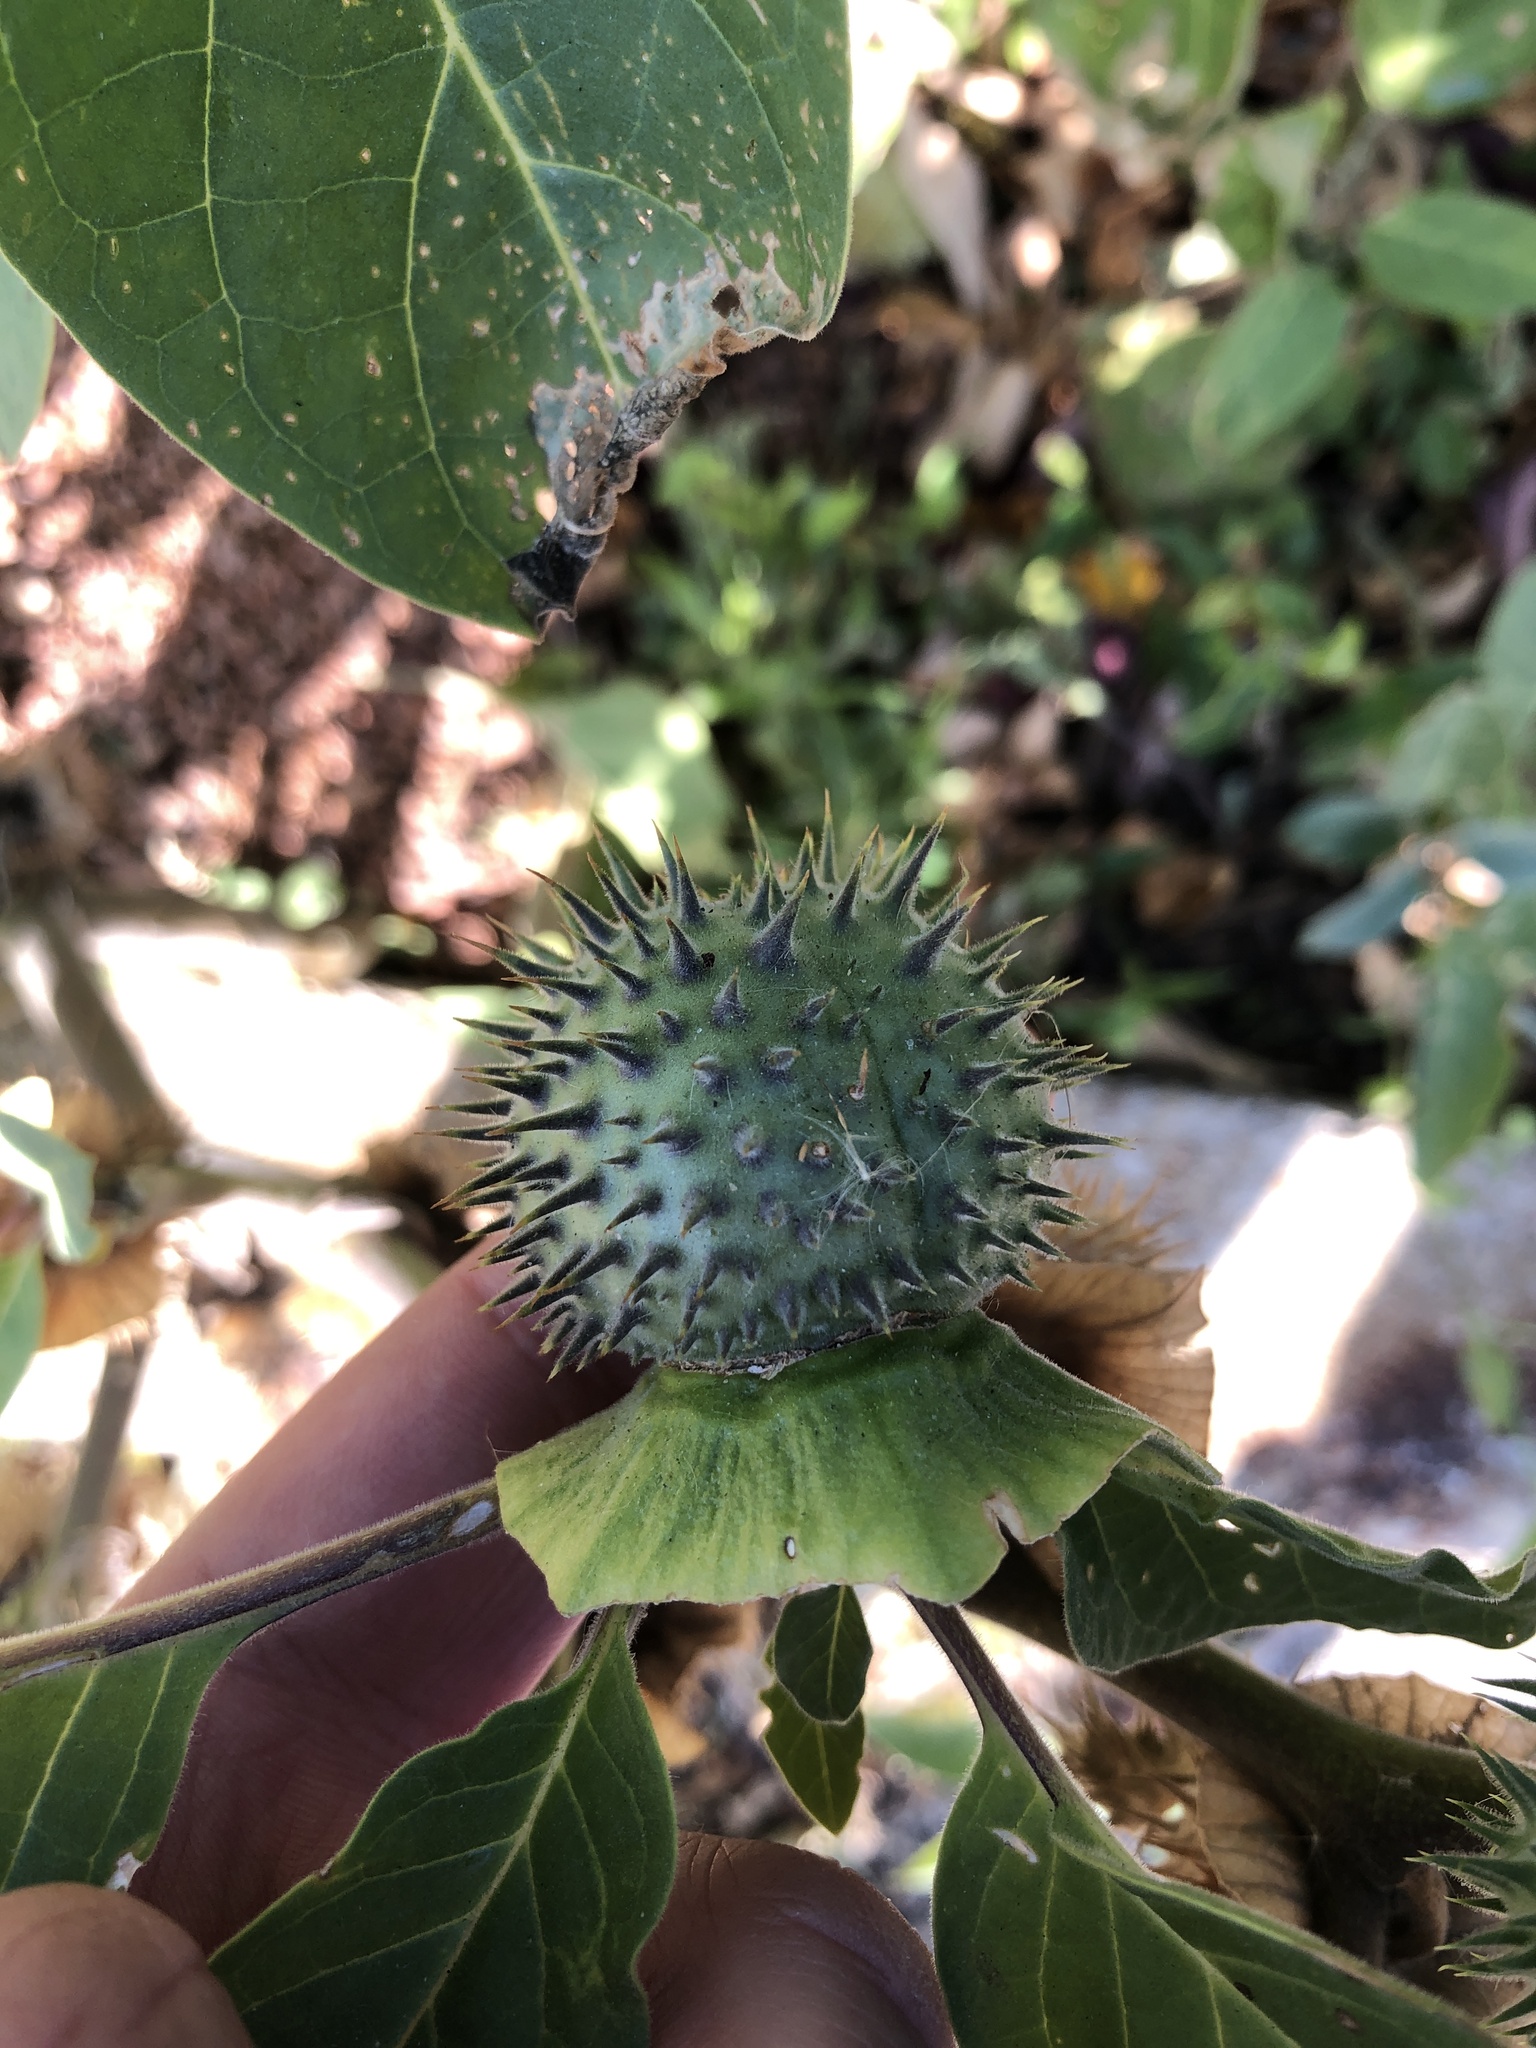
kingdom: Plantae
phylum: Tracheophyta
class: Magnoliopsida
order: Solanales
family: Solanaceae
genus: Datura
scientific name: Datura wrightii
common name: Sacred thorn-apple
